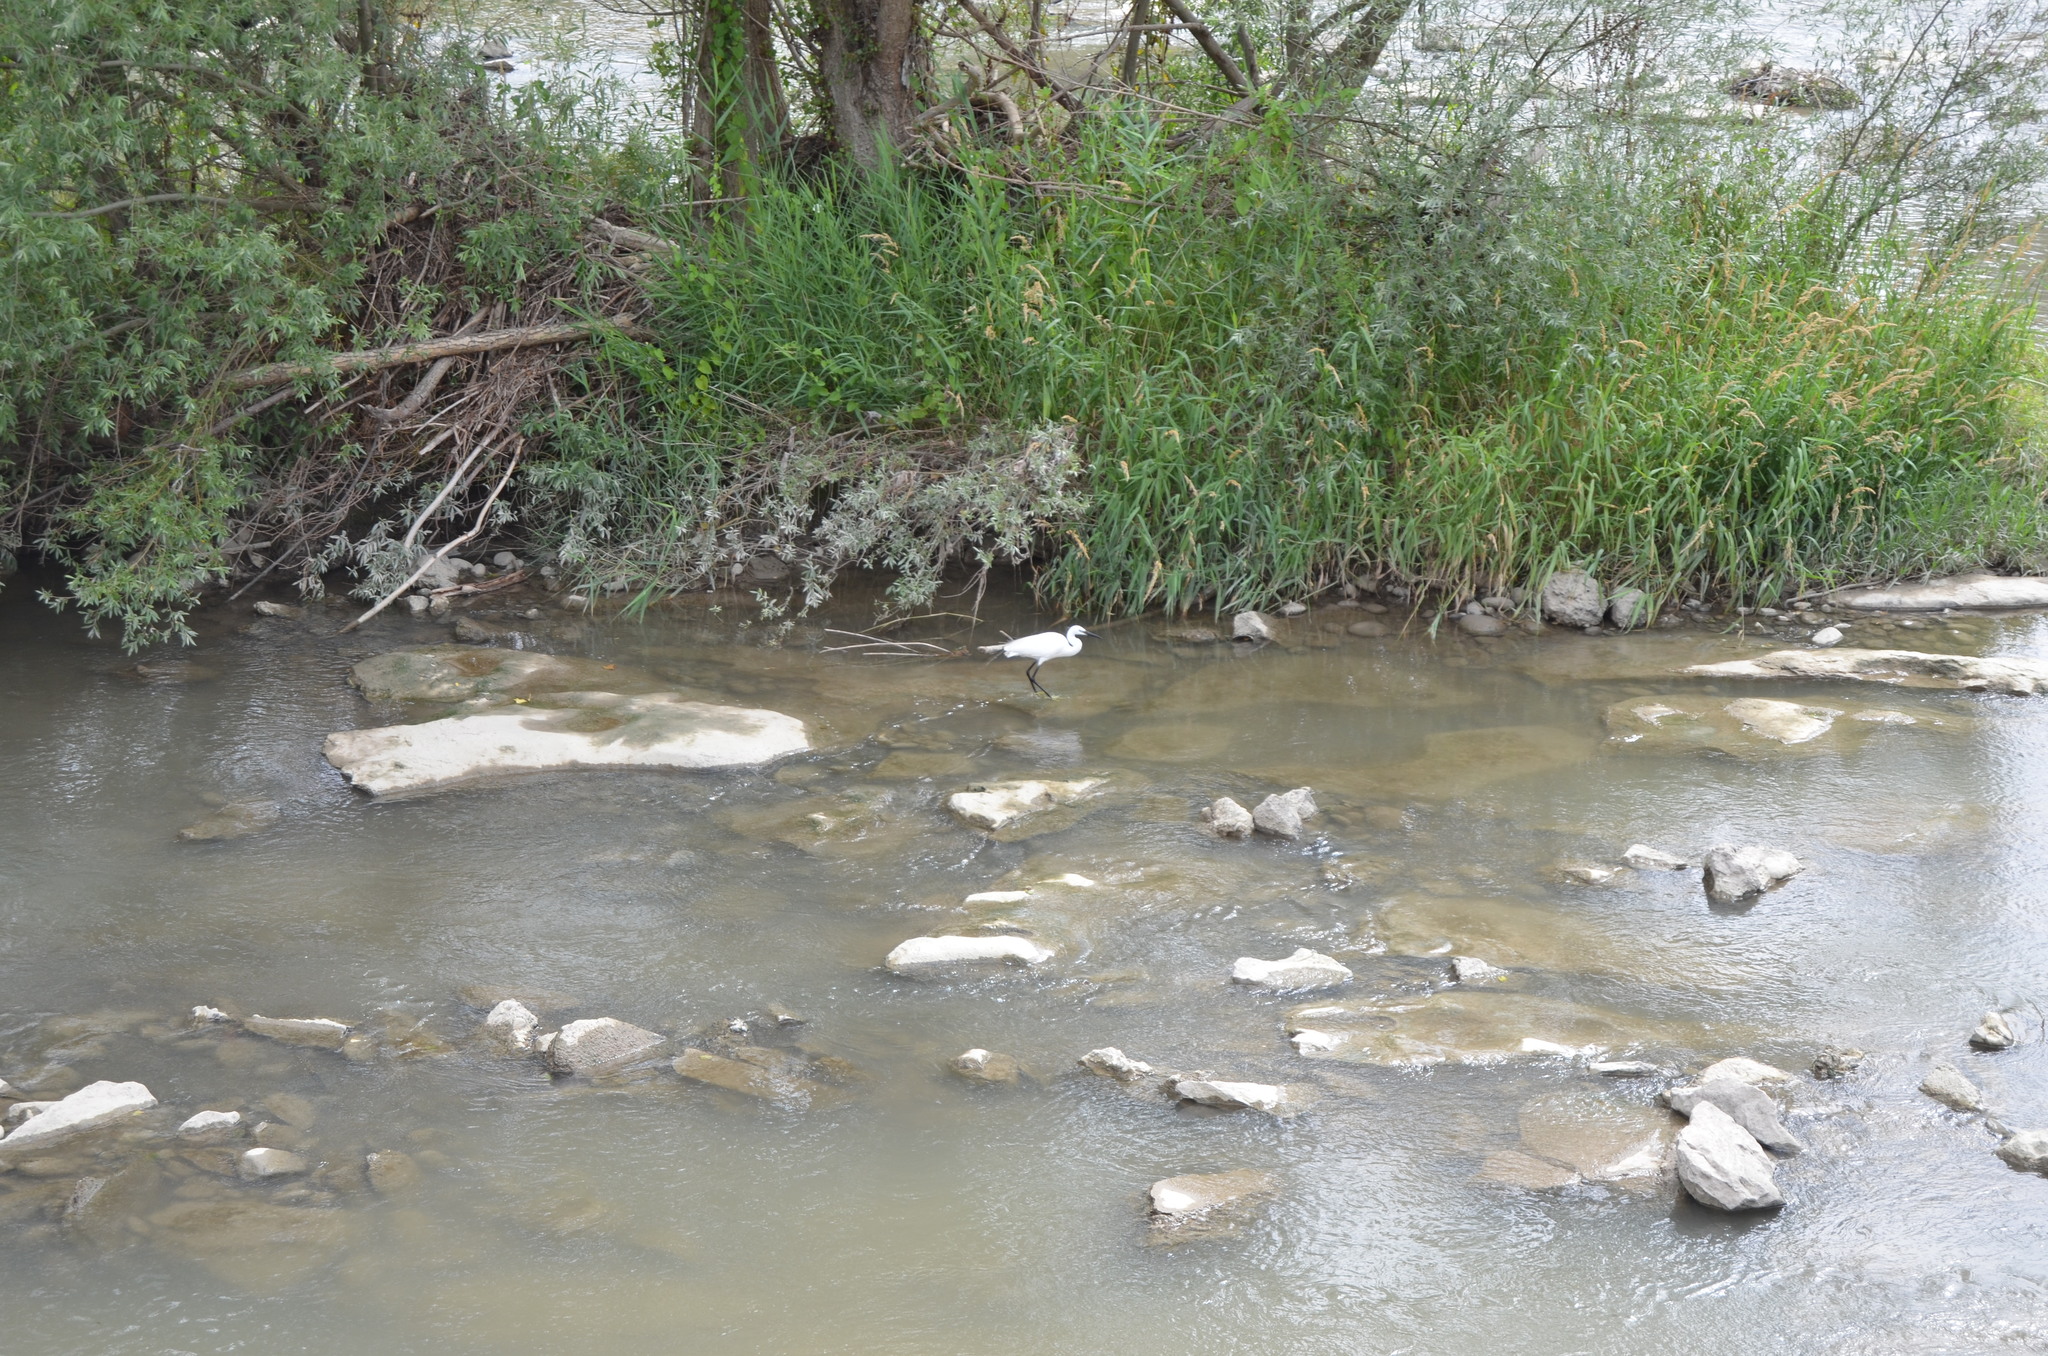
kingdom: Animalia
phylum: Chordata
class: Aves
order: Pelecaniformes
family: Ardeidae
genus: Egretta
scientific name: Egretta garzetta
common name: Little egret
